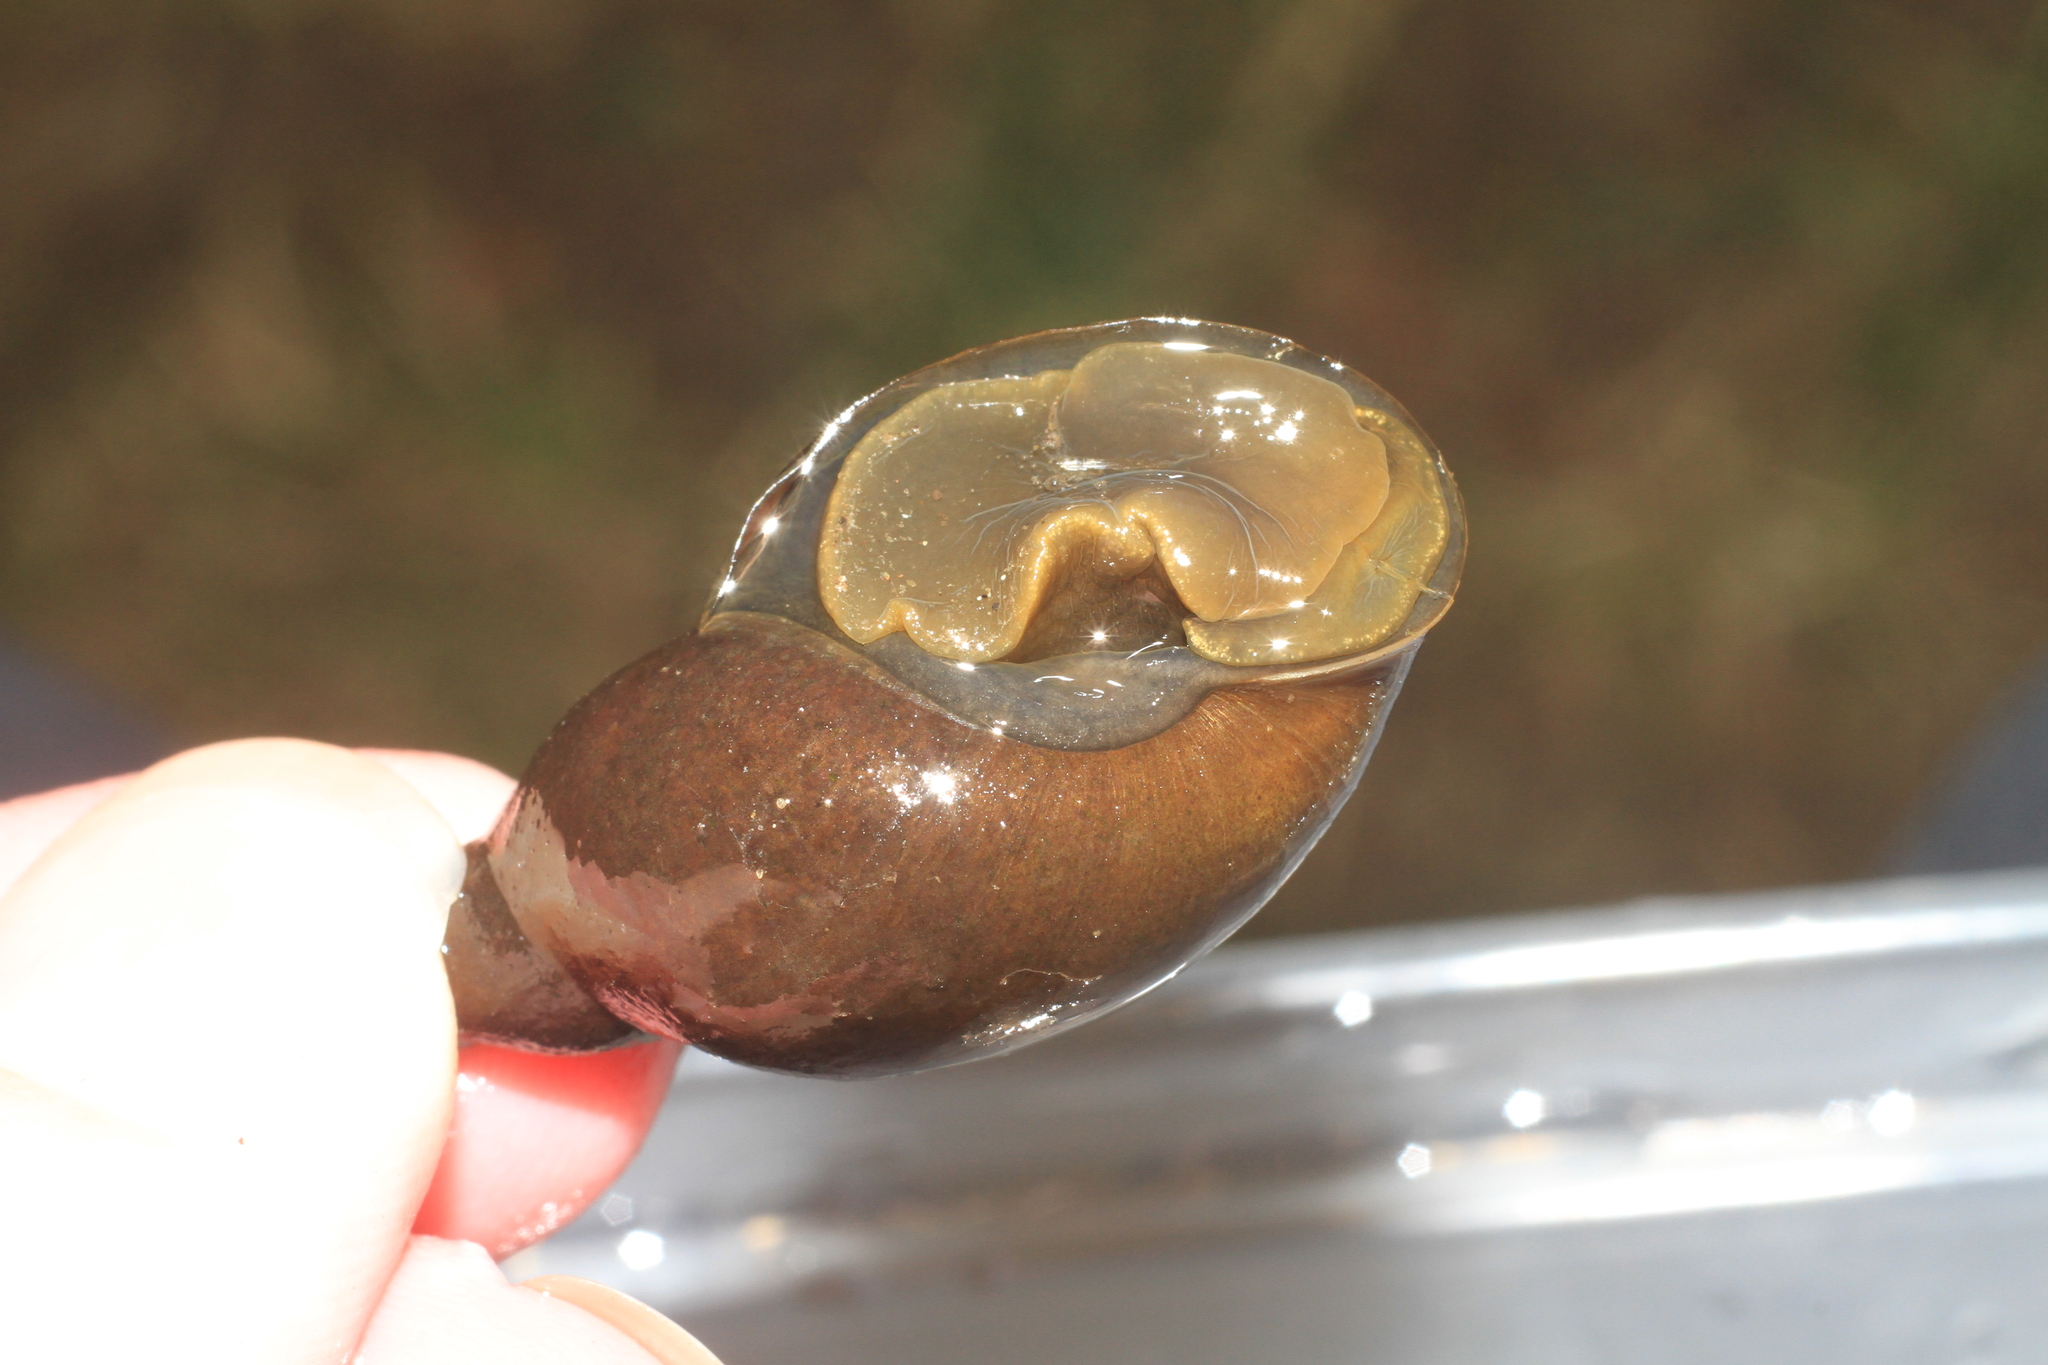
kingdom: Animalia
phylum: Mollusca
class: Gastropoda
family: Lymnaeidae
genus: Lymnaea
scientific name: Lymnaea stagnalis
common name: Great pond snail
